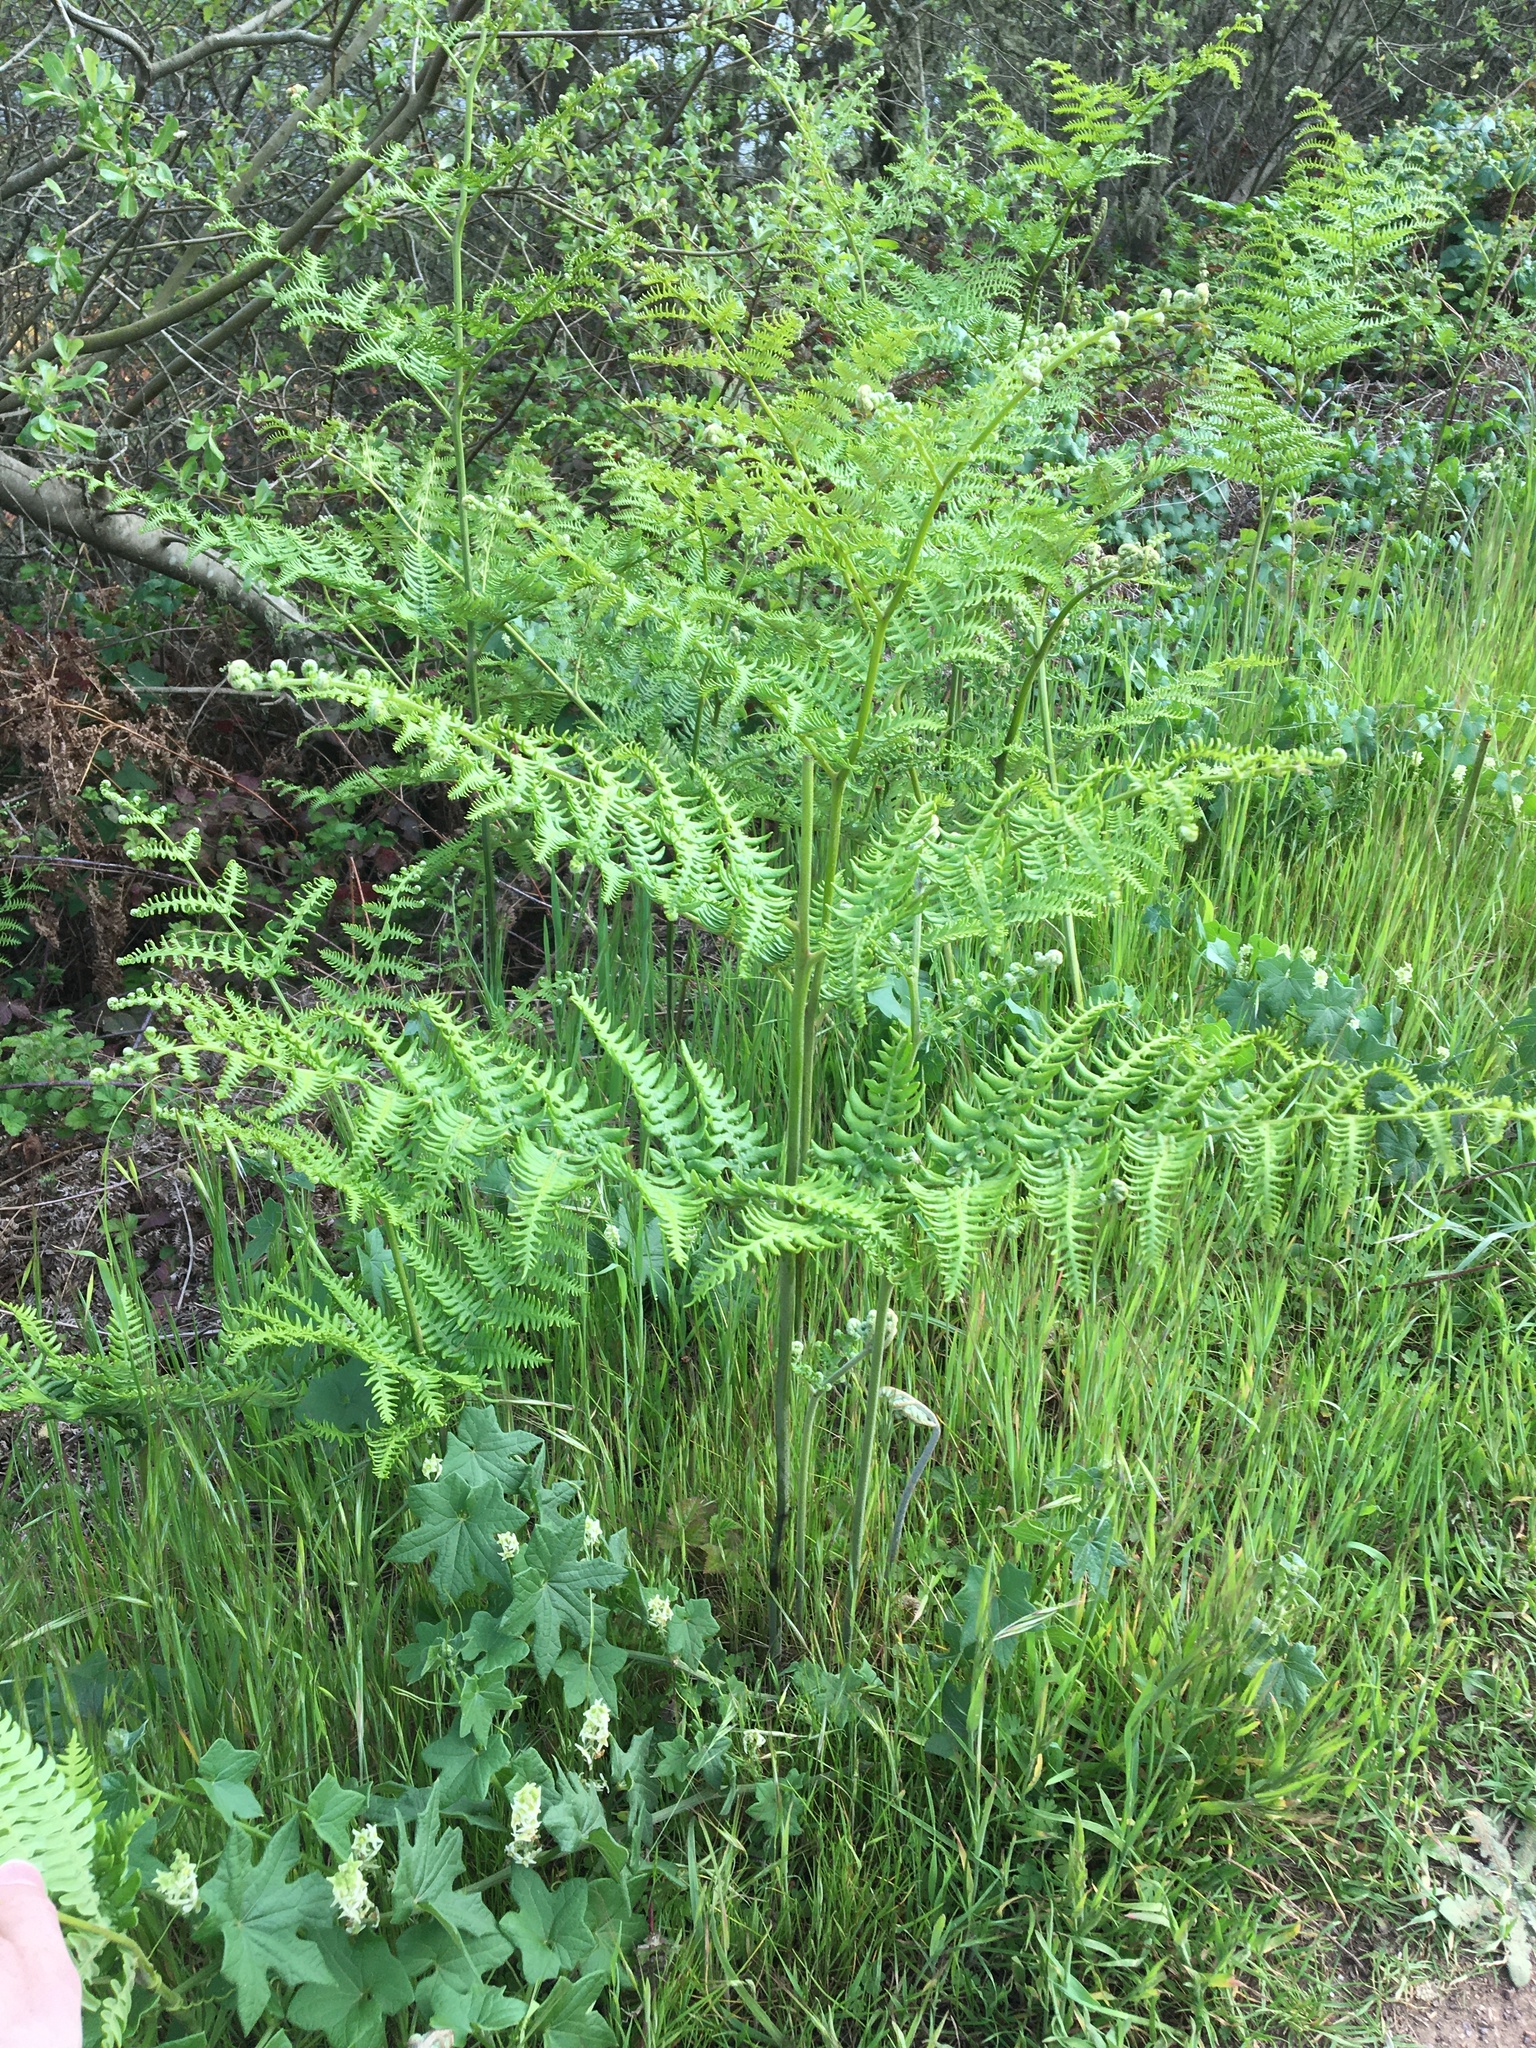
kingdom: Plantae
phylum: Tracheophyta
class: Polypodiopsida
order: Polypodiales
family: Dennstaedtiaceae
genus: Pteridium
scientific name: Pteridium aquilinum
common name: Bracken
